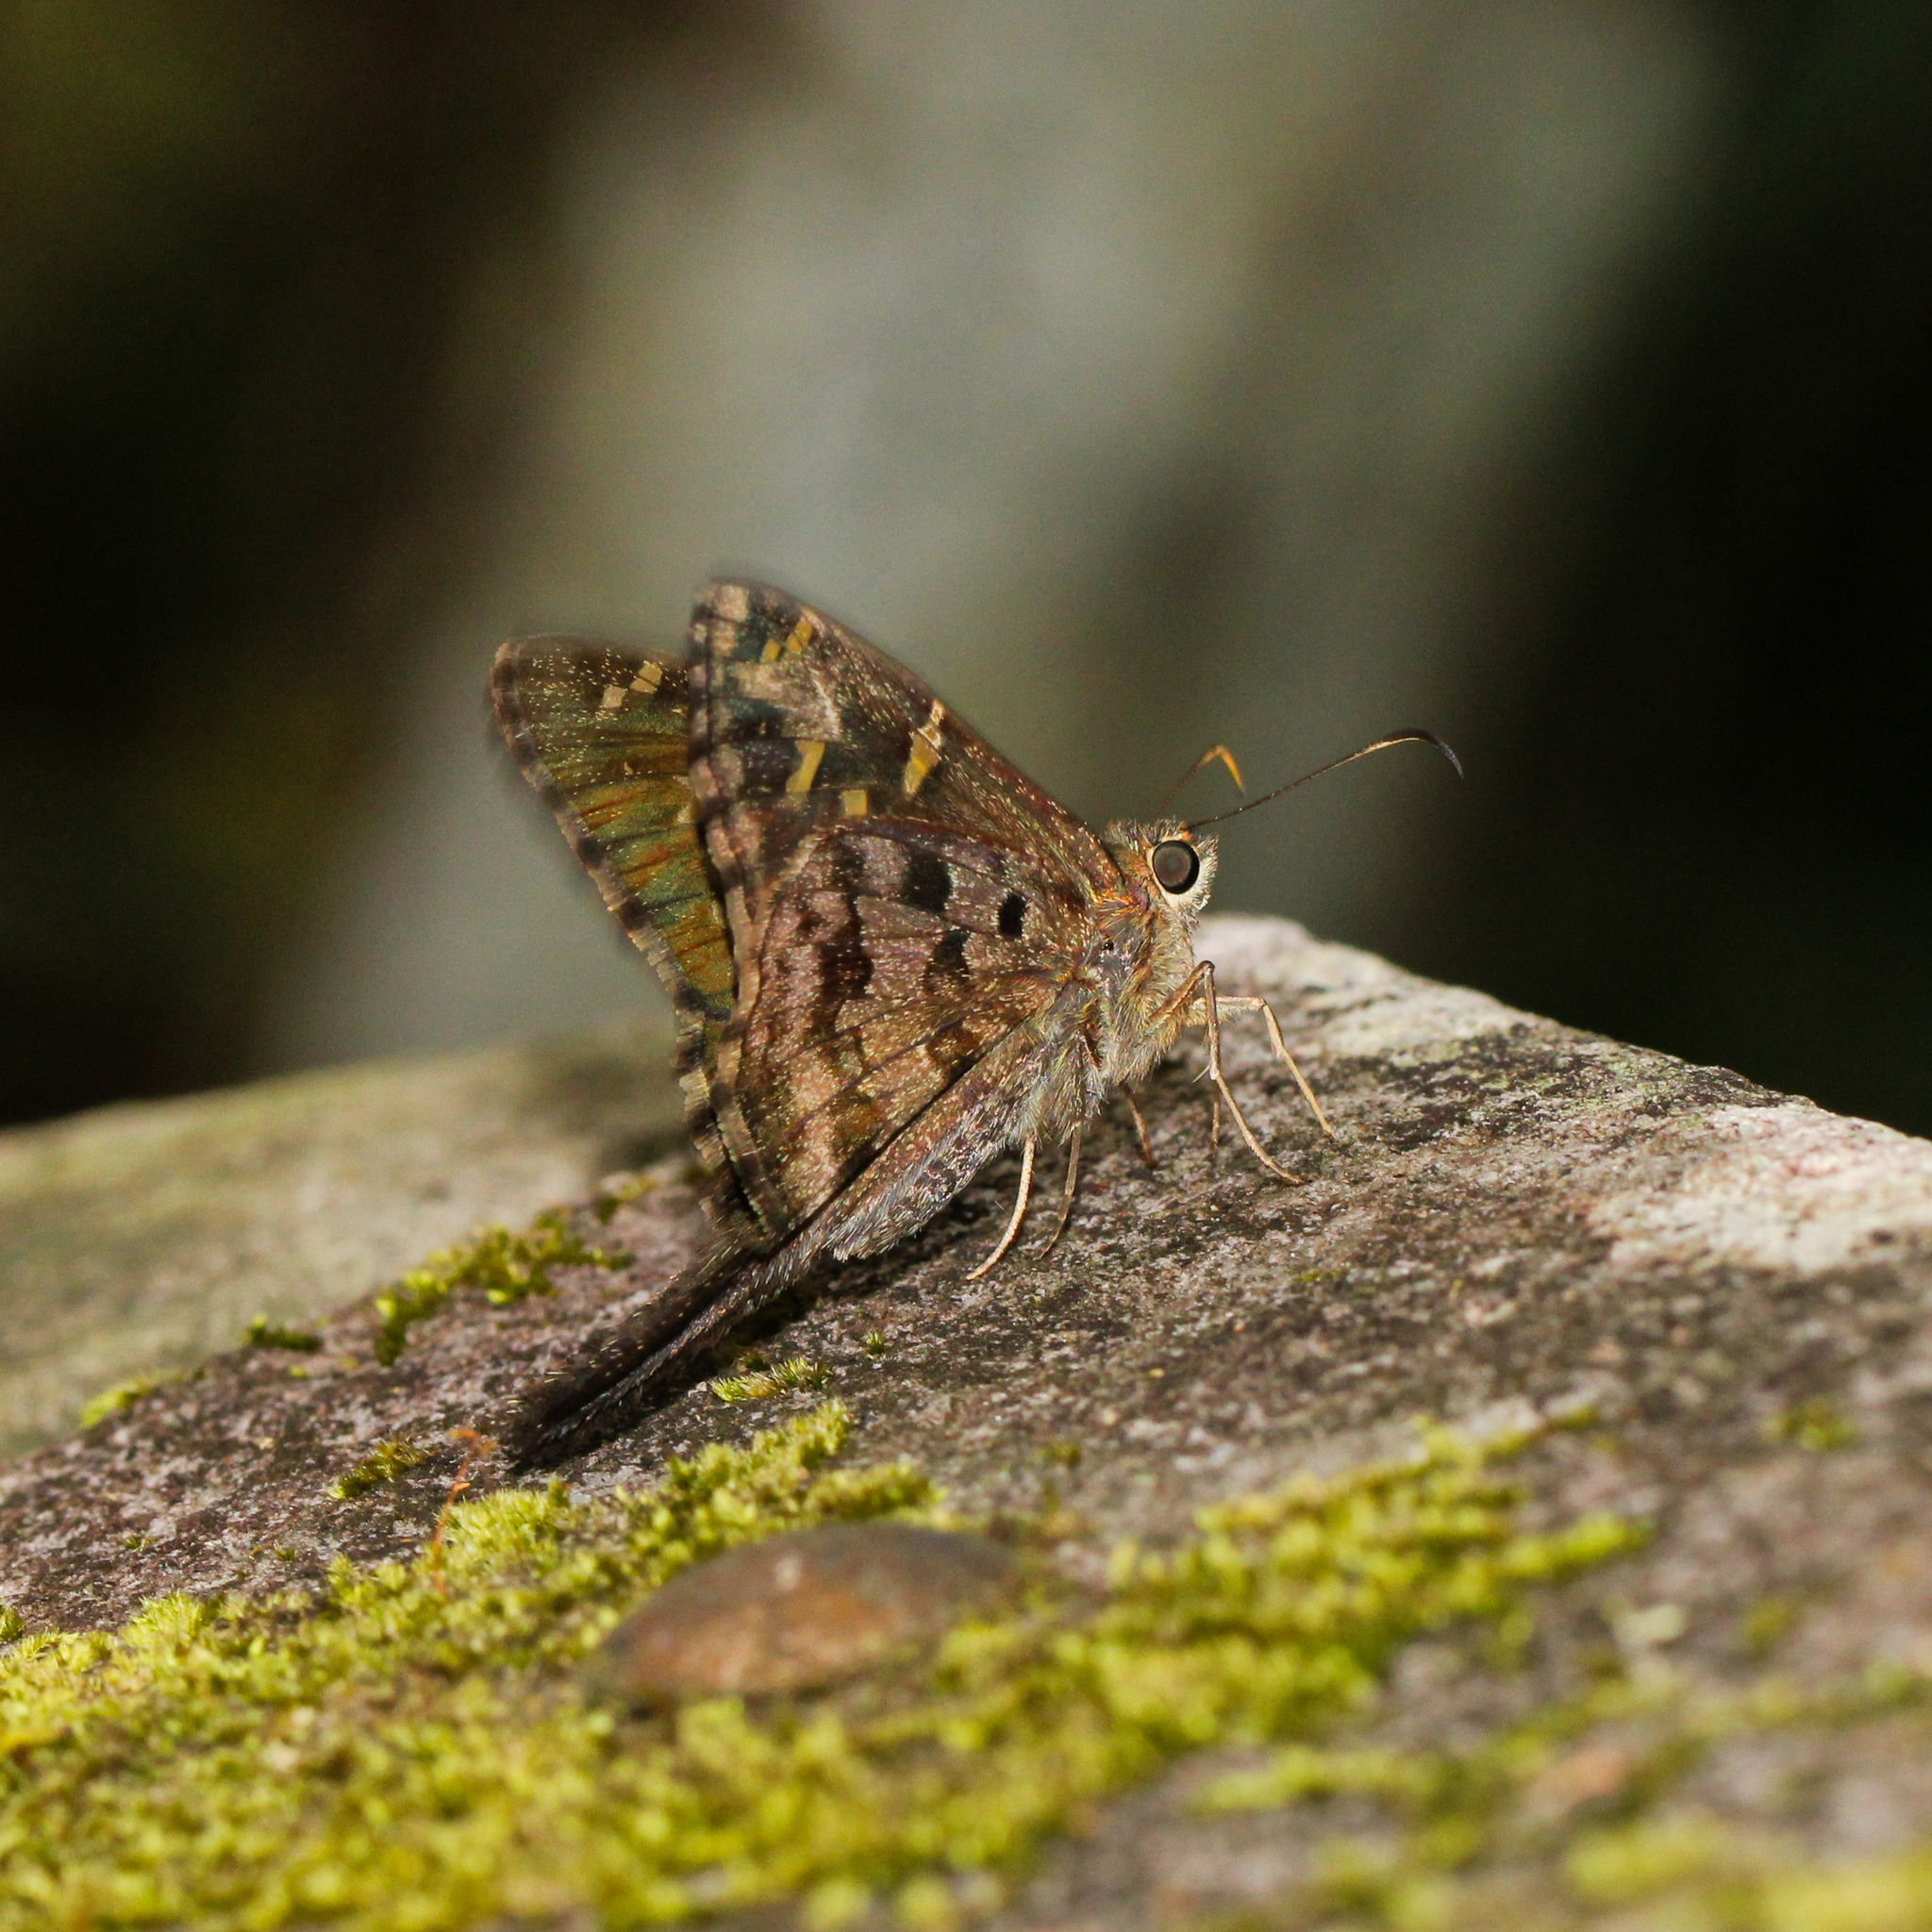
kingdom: Animalia
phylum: Arthropoda
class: Insecta
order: Lepidoptera
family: Hesperiidae
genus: Thorybes
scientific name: Thorybes
